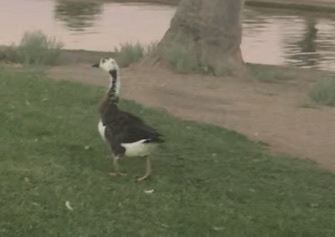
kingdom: Animalia
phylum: Chordata
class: Aves
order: Anseriformes
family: Anatidae
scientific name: Anatidae
